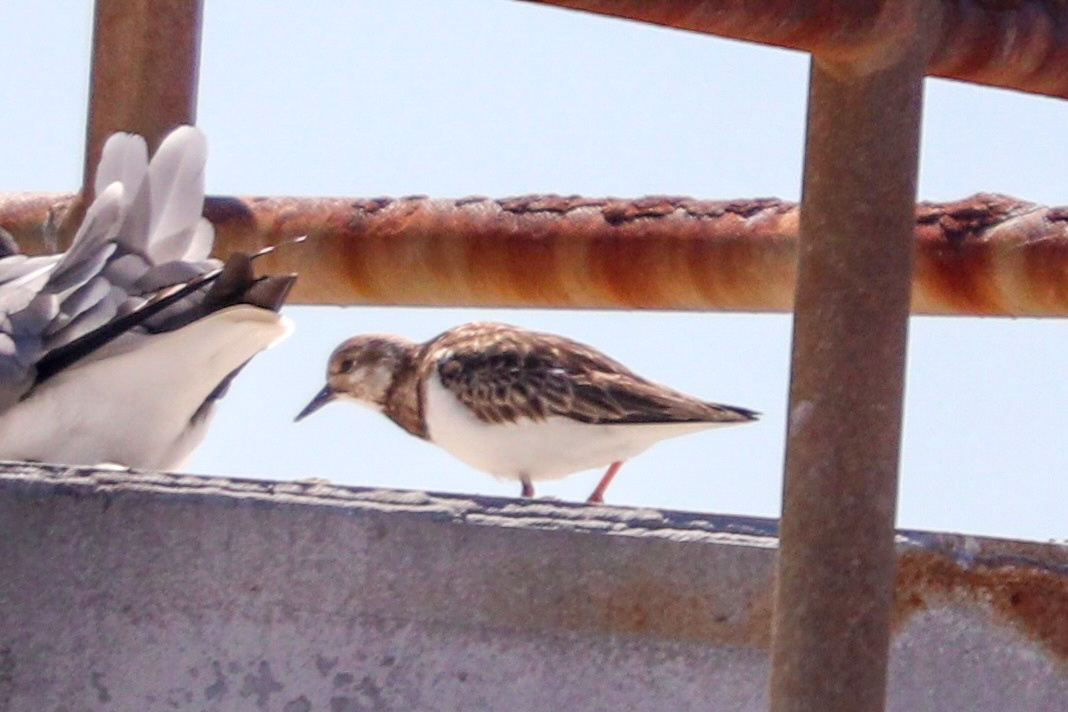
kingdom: Animalia
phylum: Chordata
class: Aves
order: Charadriiformes
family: Scolopacidae
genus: Arenaria
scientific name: Arenaria interpres
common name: Ruddy turnstone
